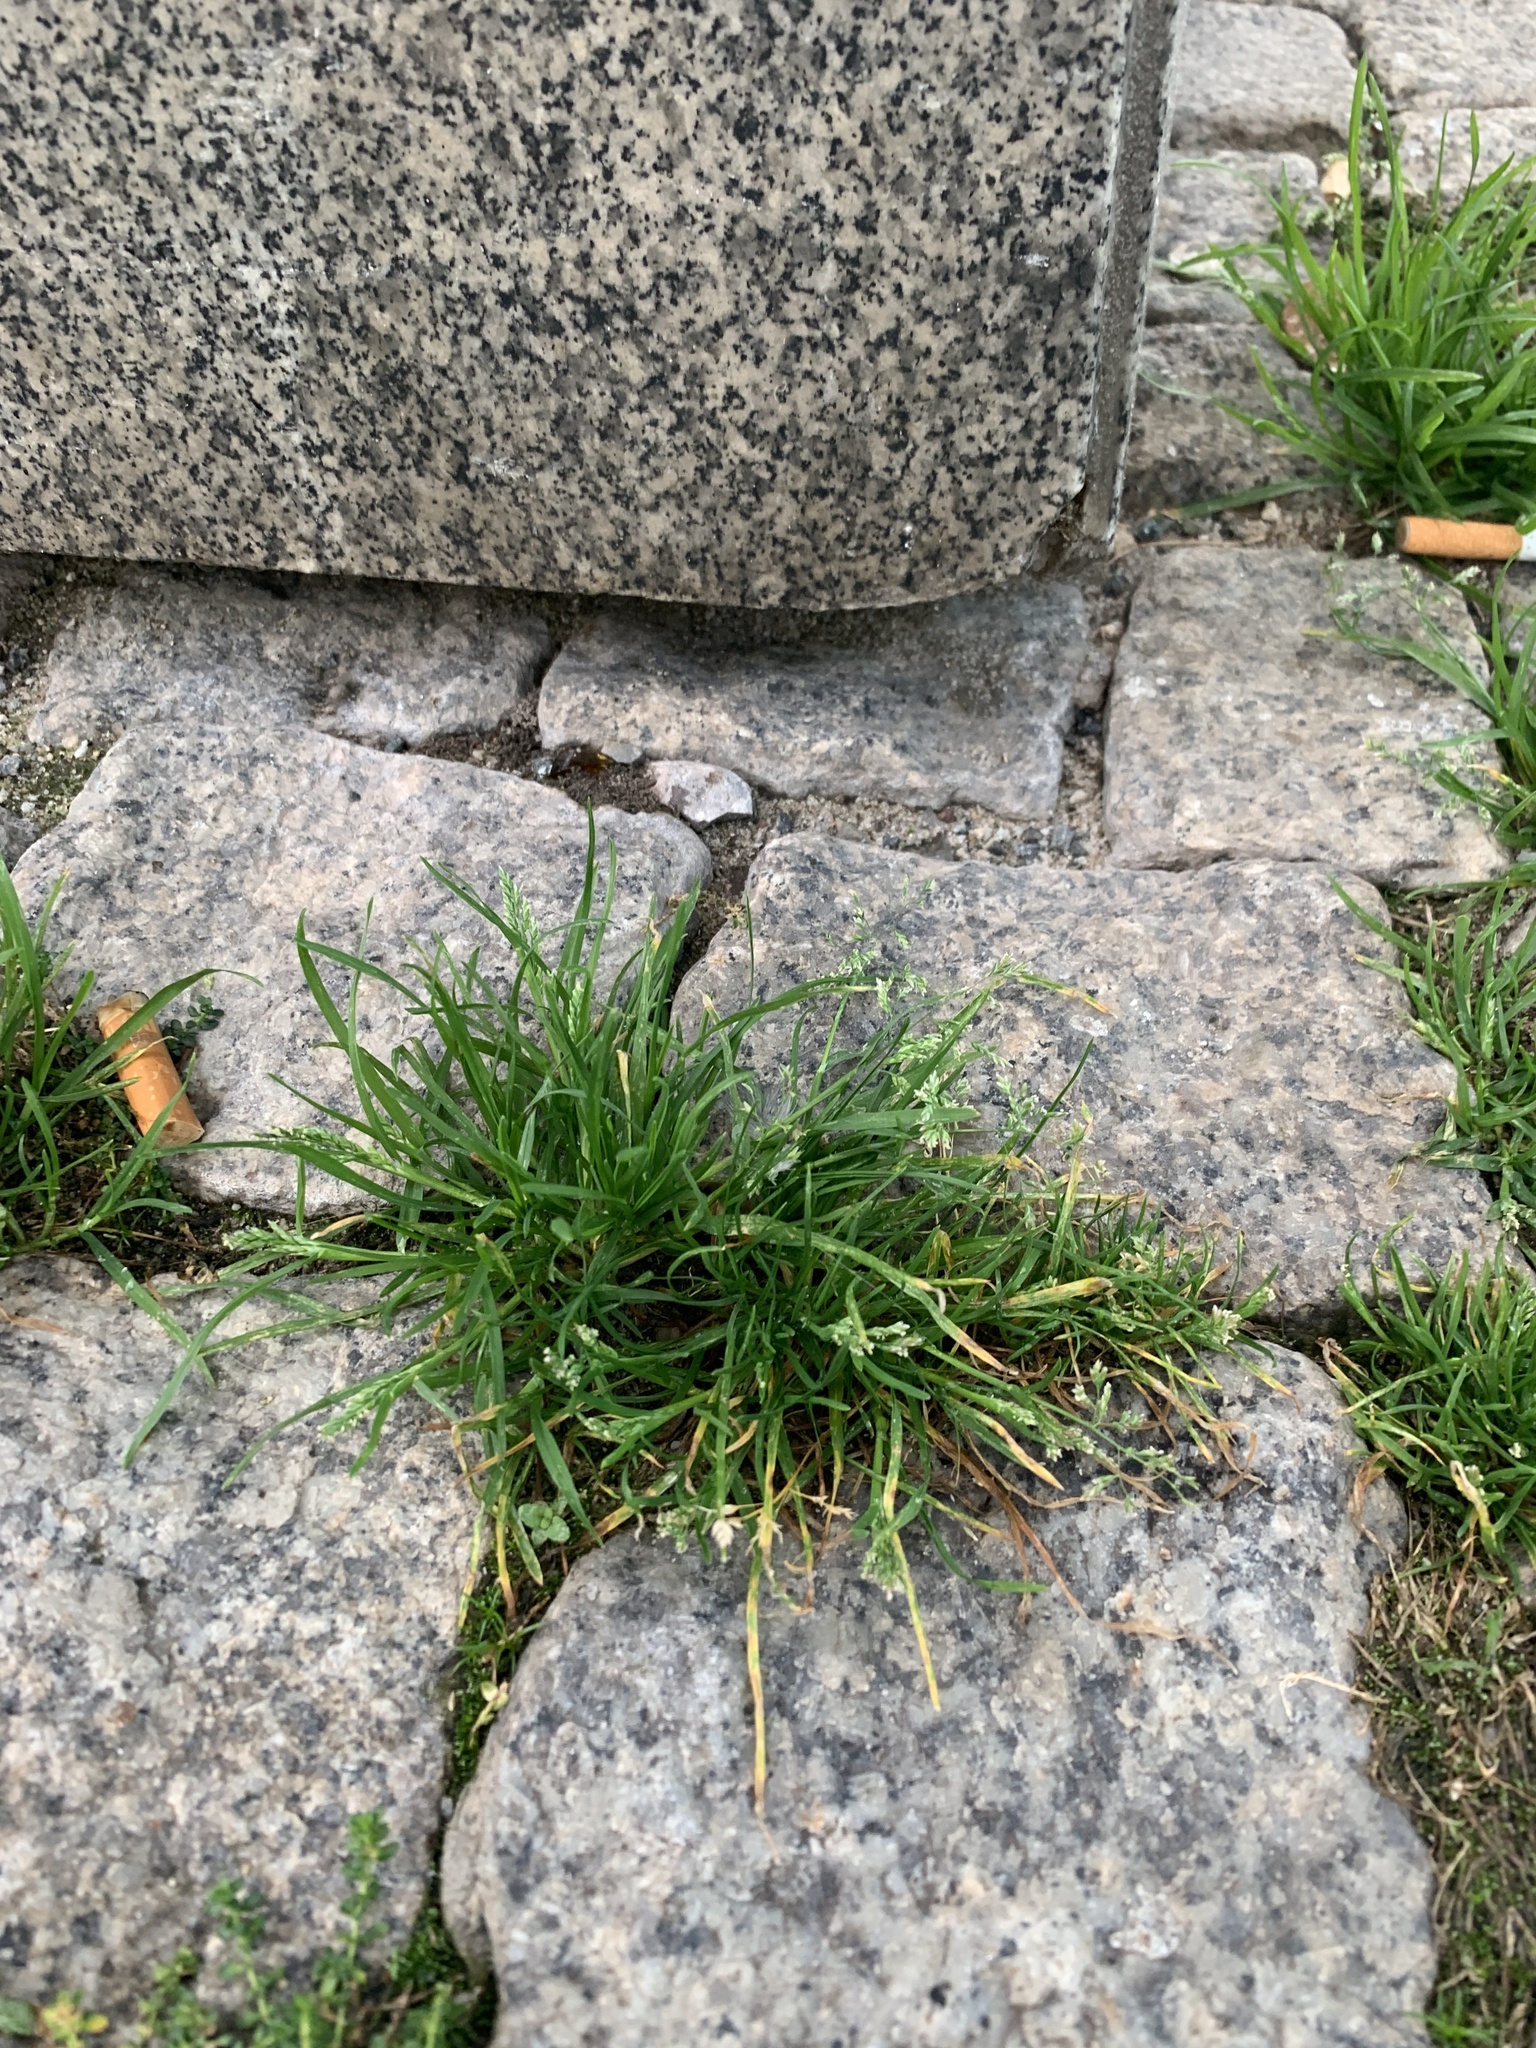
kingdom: Plantae
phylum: Tracheophyta
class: Liliopsida
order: Poales
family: Poaceae
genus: Poa
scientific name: Poa annua
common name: Annual bluegrass
